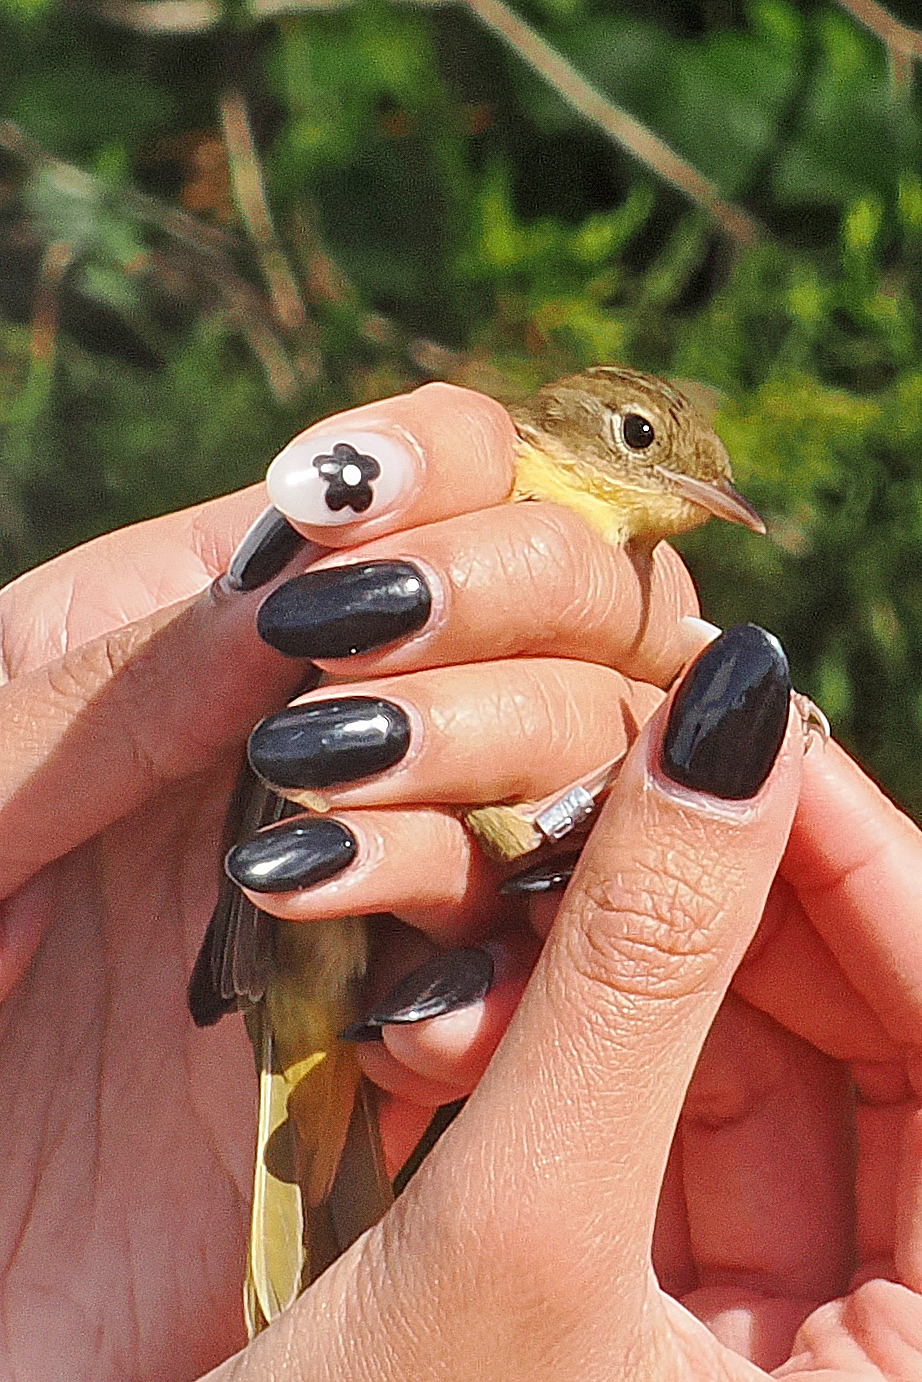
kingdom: Animalia
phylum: Chordata
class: Aves
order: Passeriformes
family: Parulidae
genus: Geothlypis
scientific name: Geothlypis trichas
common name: Common yellowthroat
